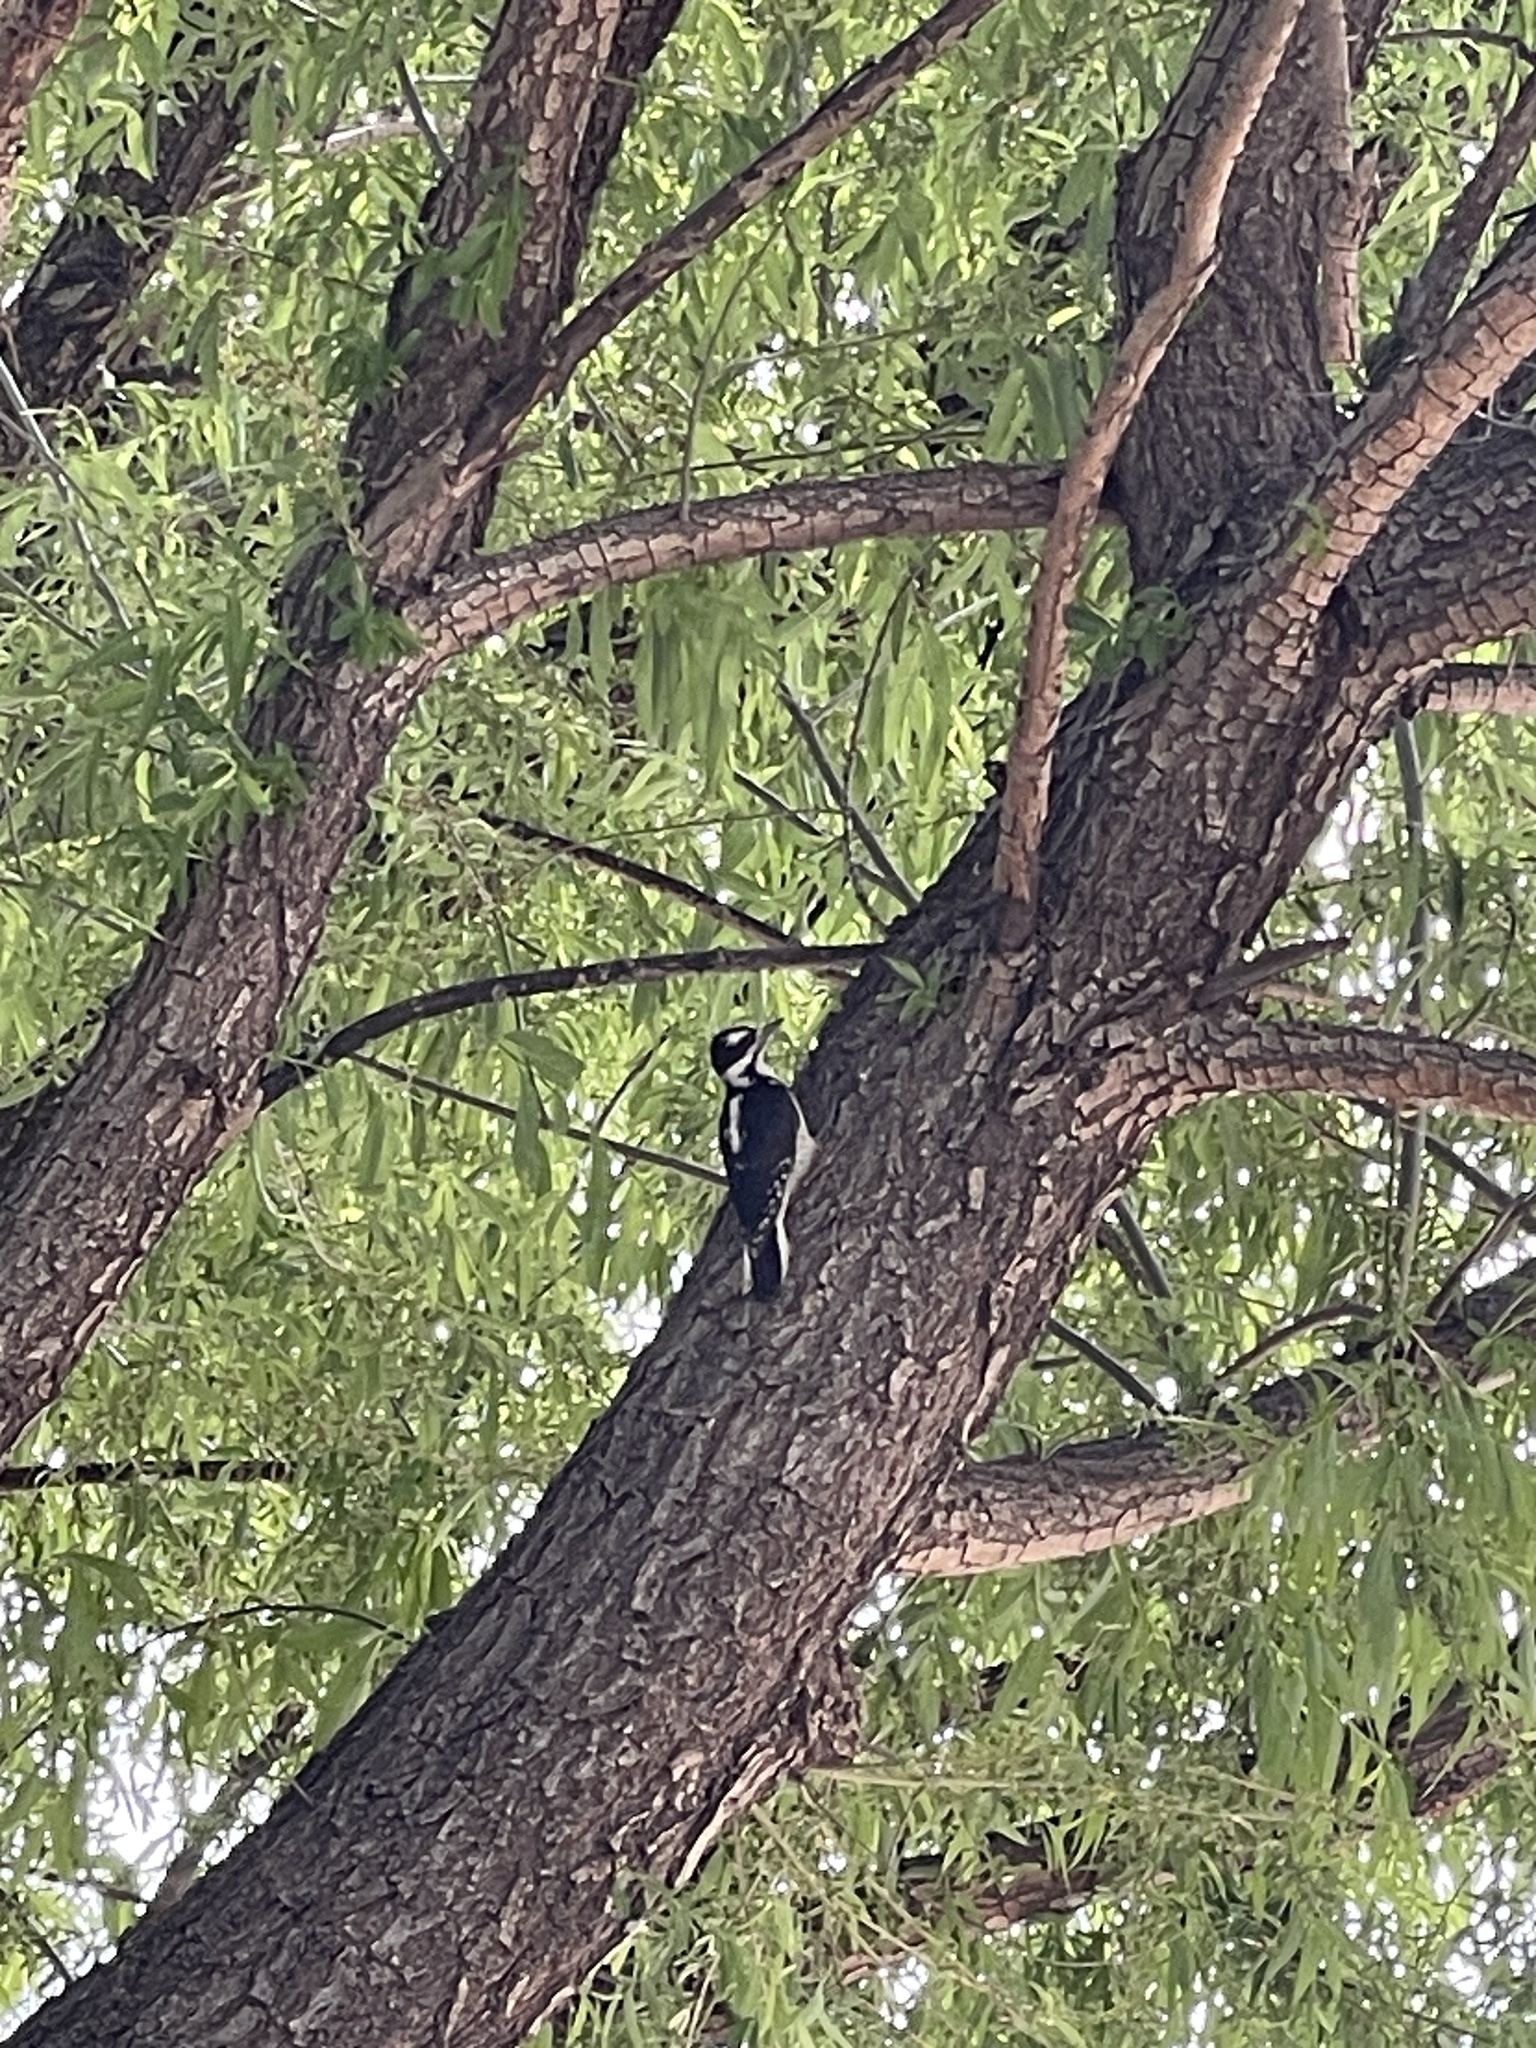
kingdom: Animalia
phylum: Chordata
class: Aves
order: Piciformes
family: Picidae
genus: Leuconotopicus
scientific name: Leuconotopicus villosus
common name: Hairy woodpecker
